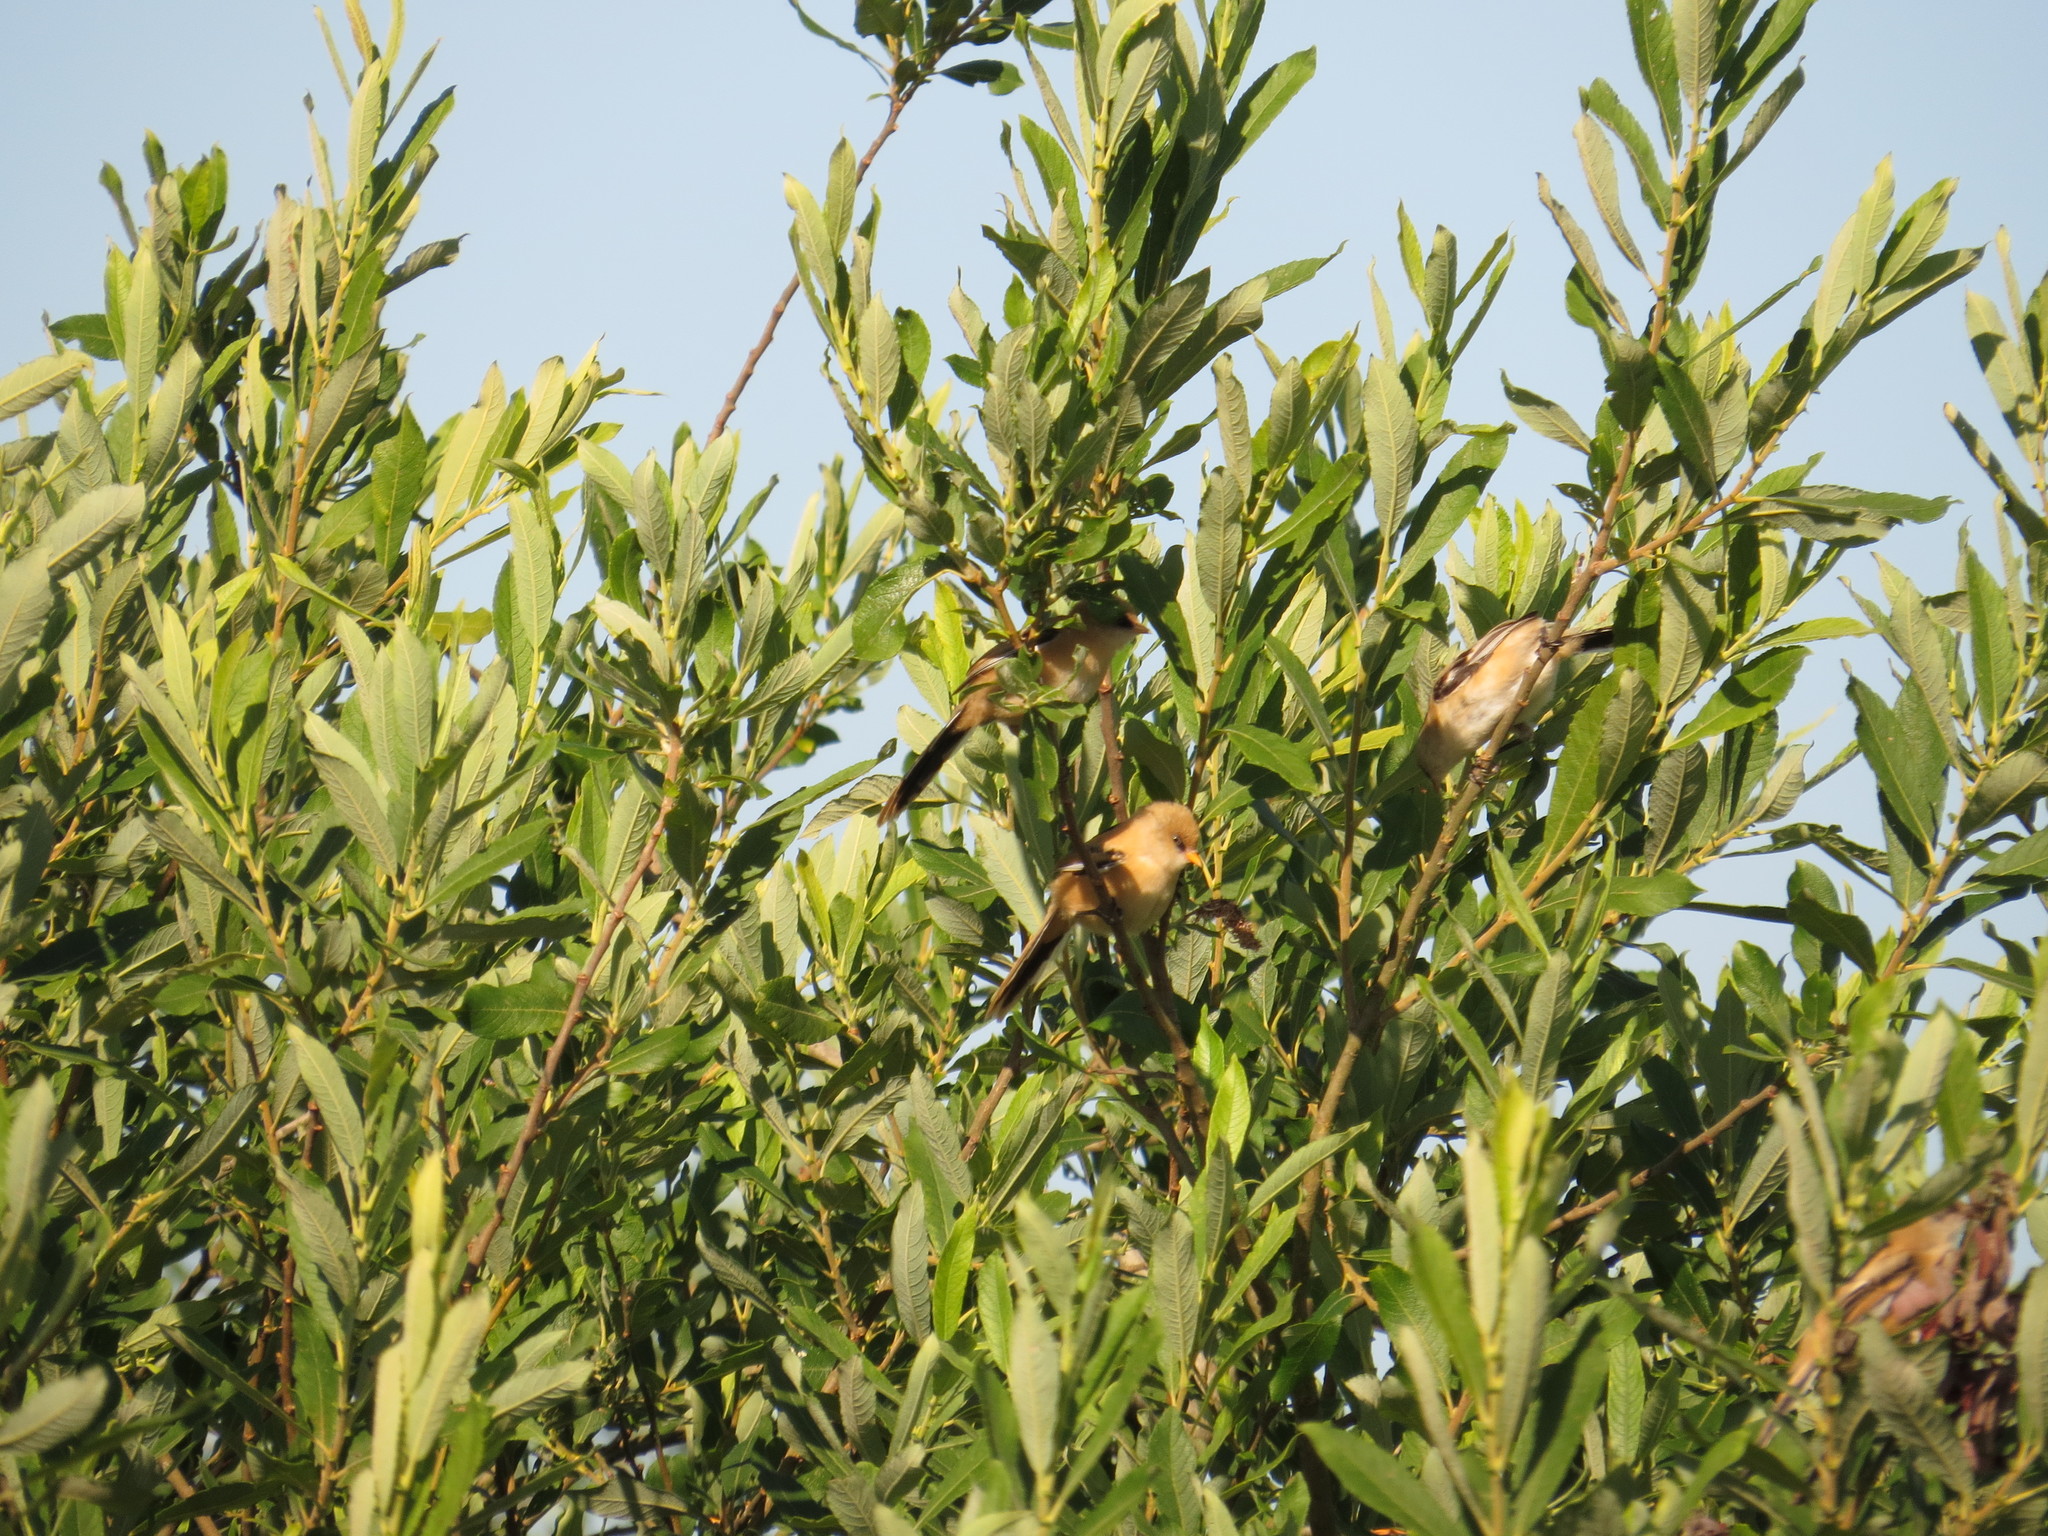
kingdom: Animalia
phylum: Chordata
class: Aves
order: Passeriformes
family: Panuridae
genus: Panurus
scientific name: Panurus biarmicus
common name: Bearded reedling
